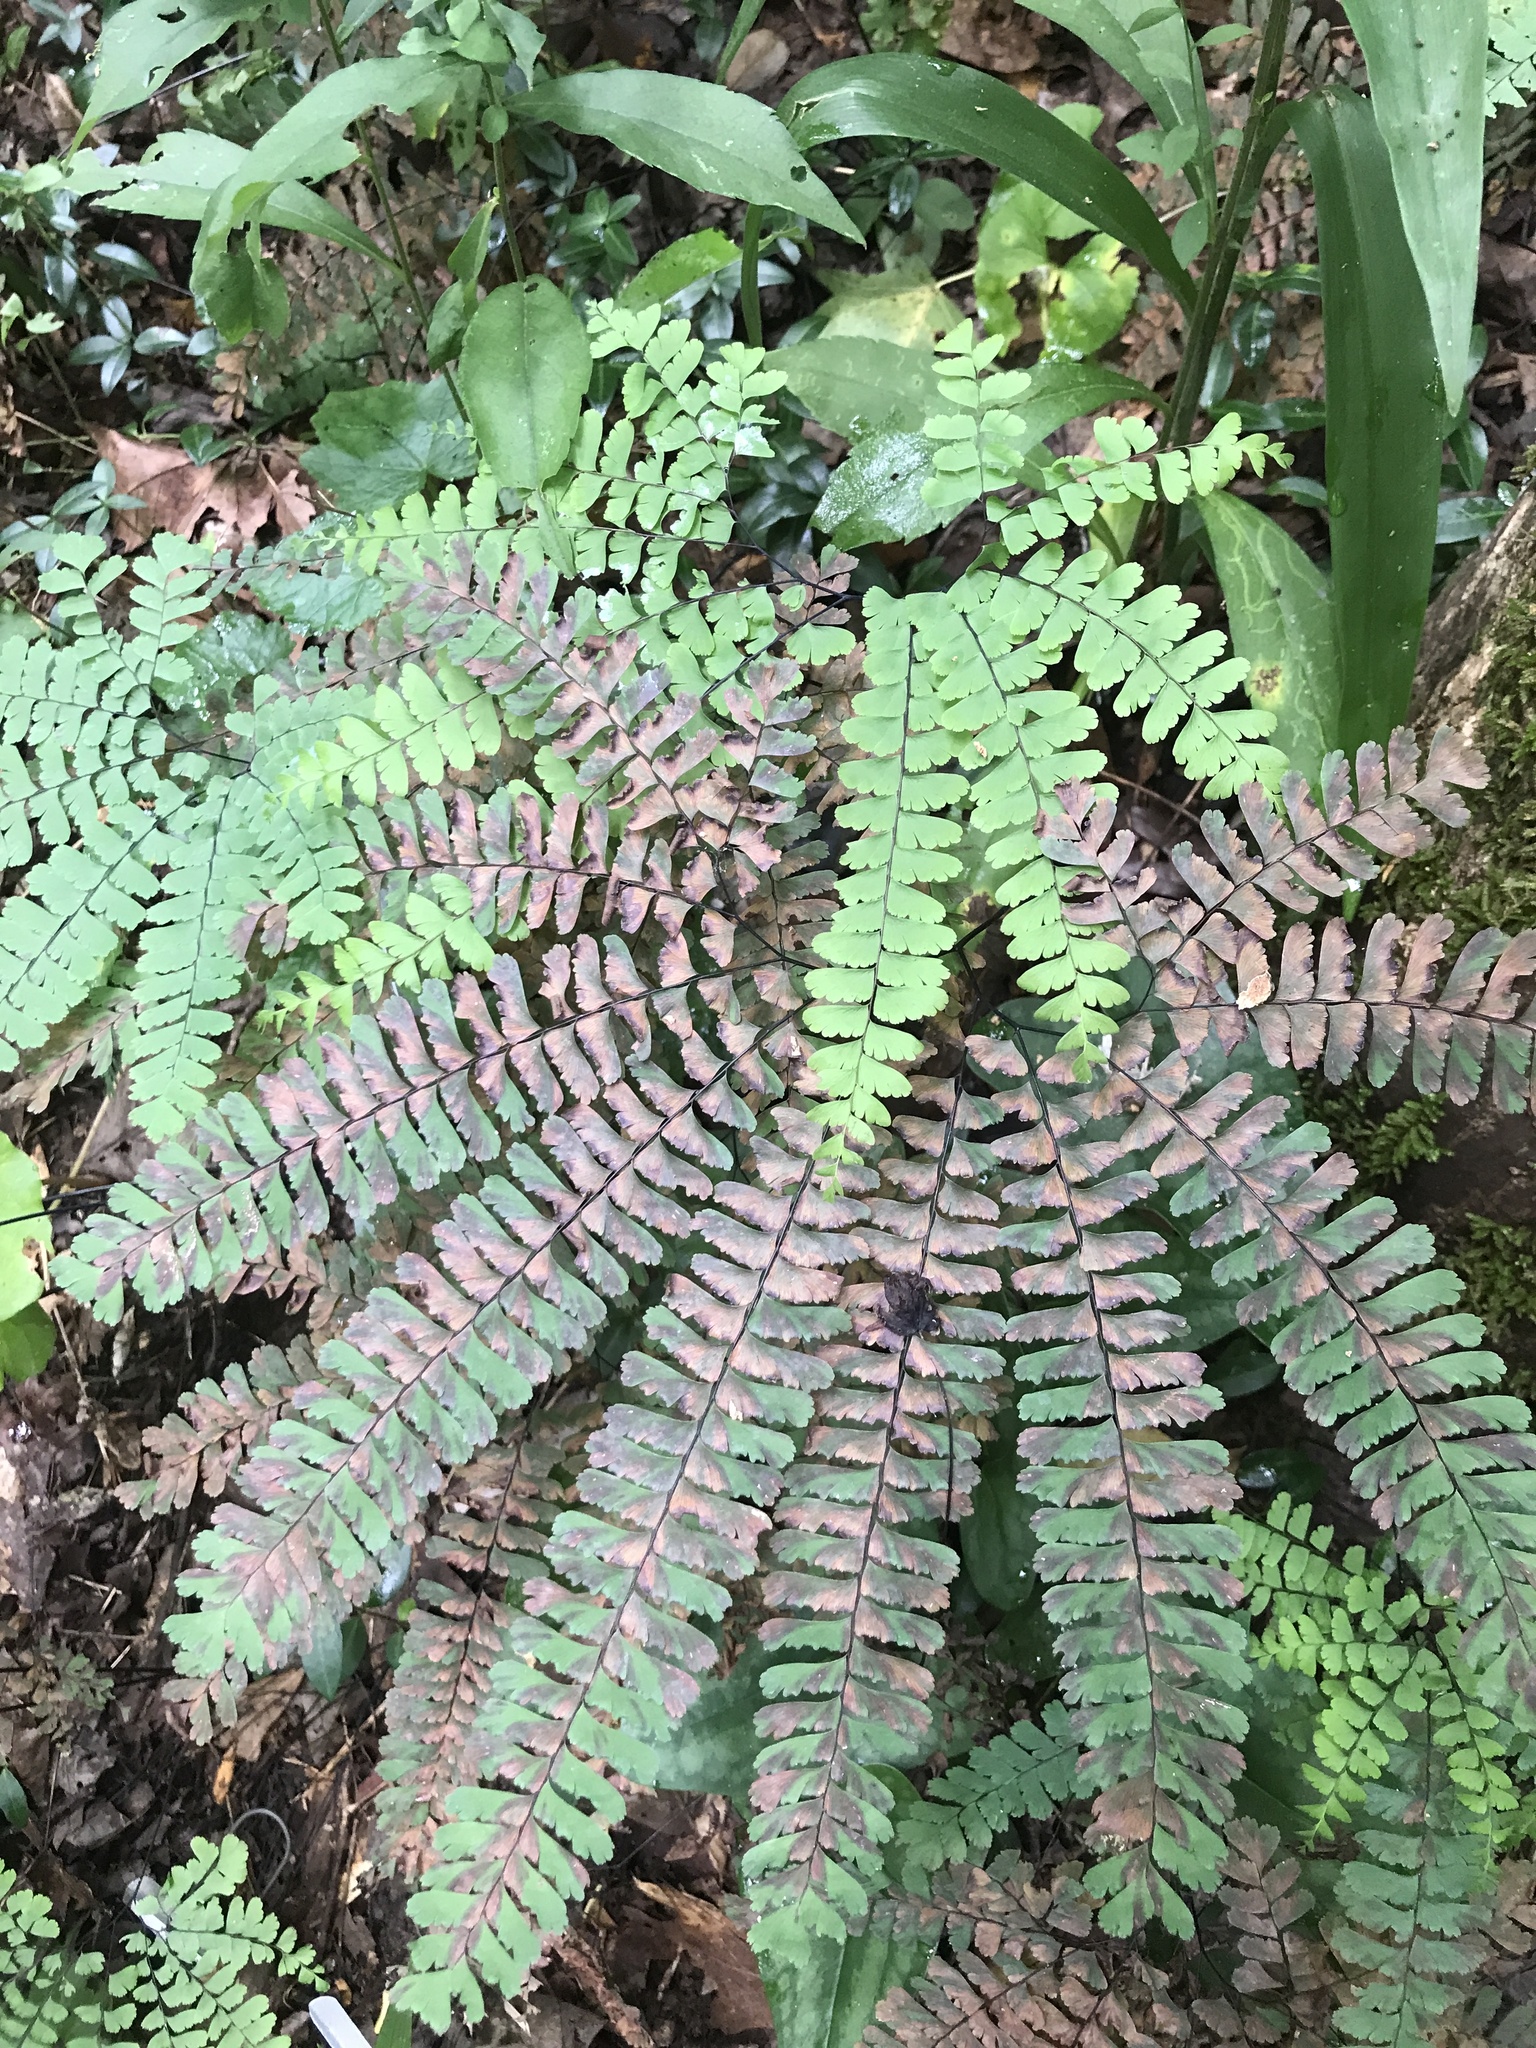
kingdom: Plantae
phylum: Tracheophyta
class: Polypodiopsida
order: Polypodiales
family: Pteridaceae
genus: Adiantum
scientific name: Adiantum pedatum
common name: Five-finger fern
